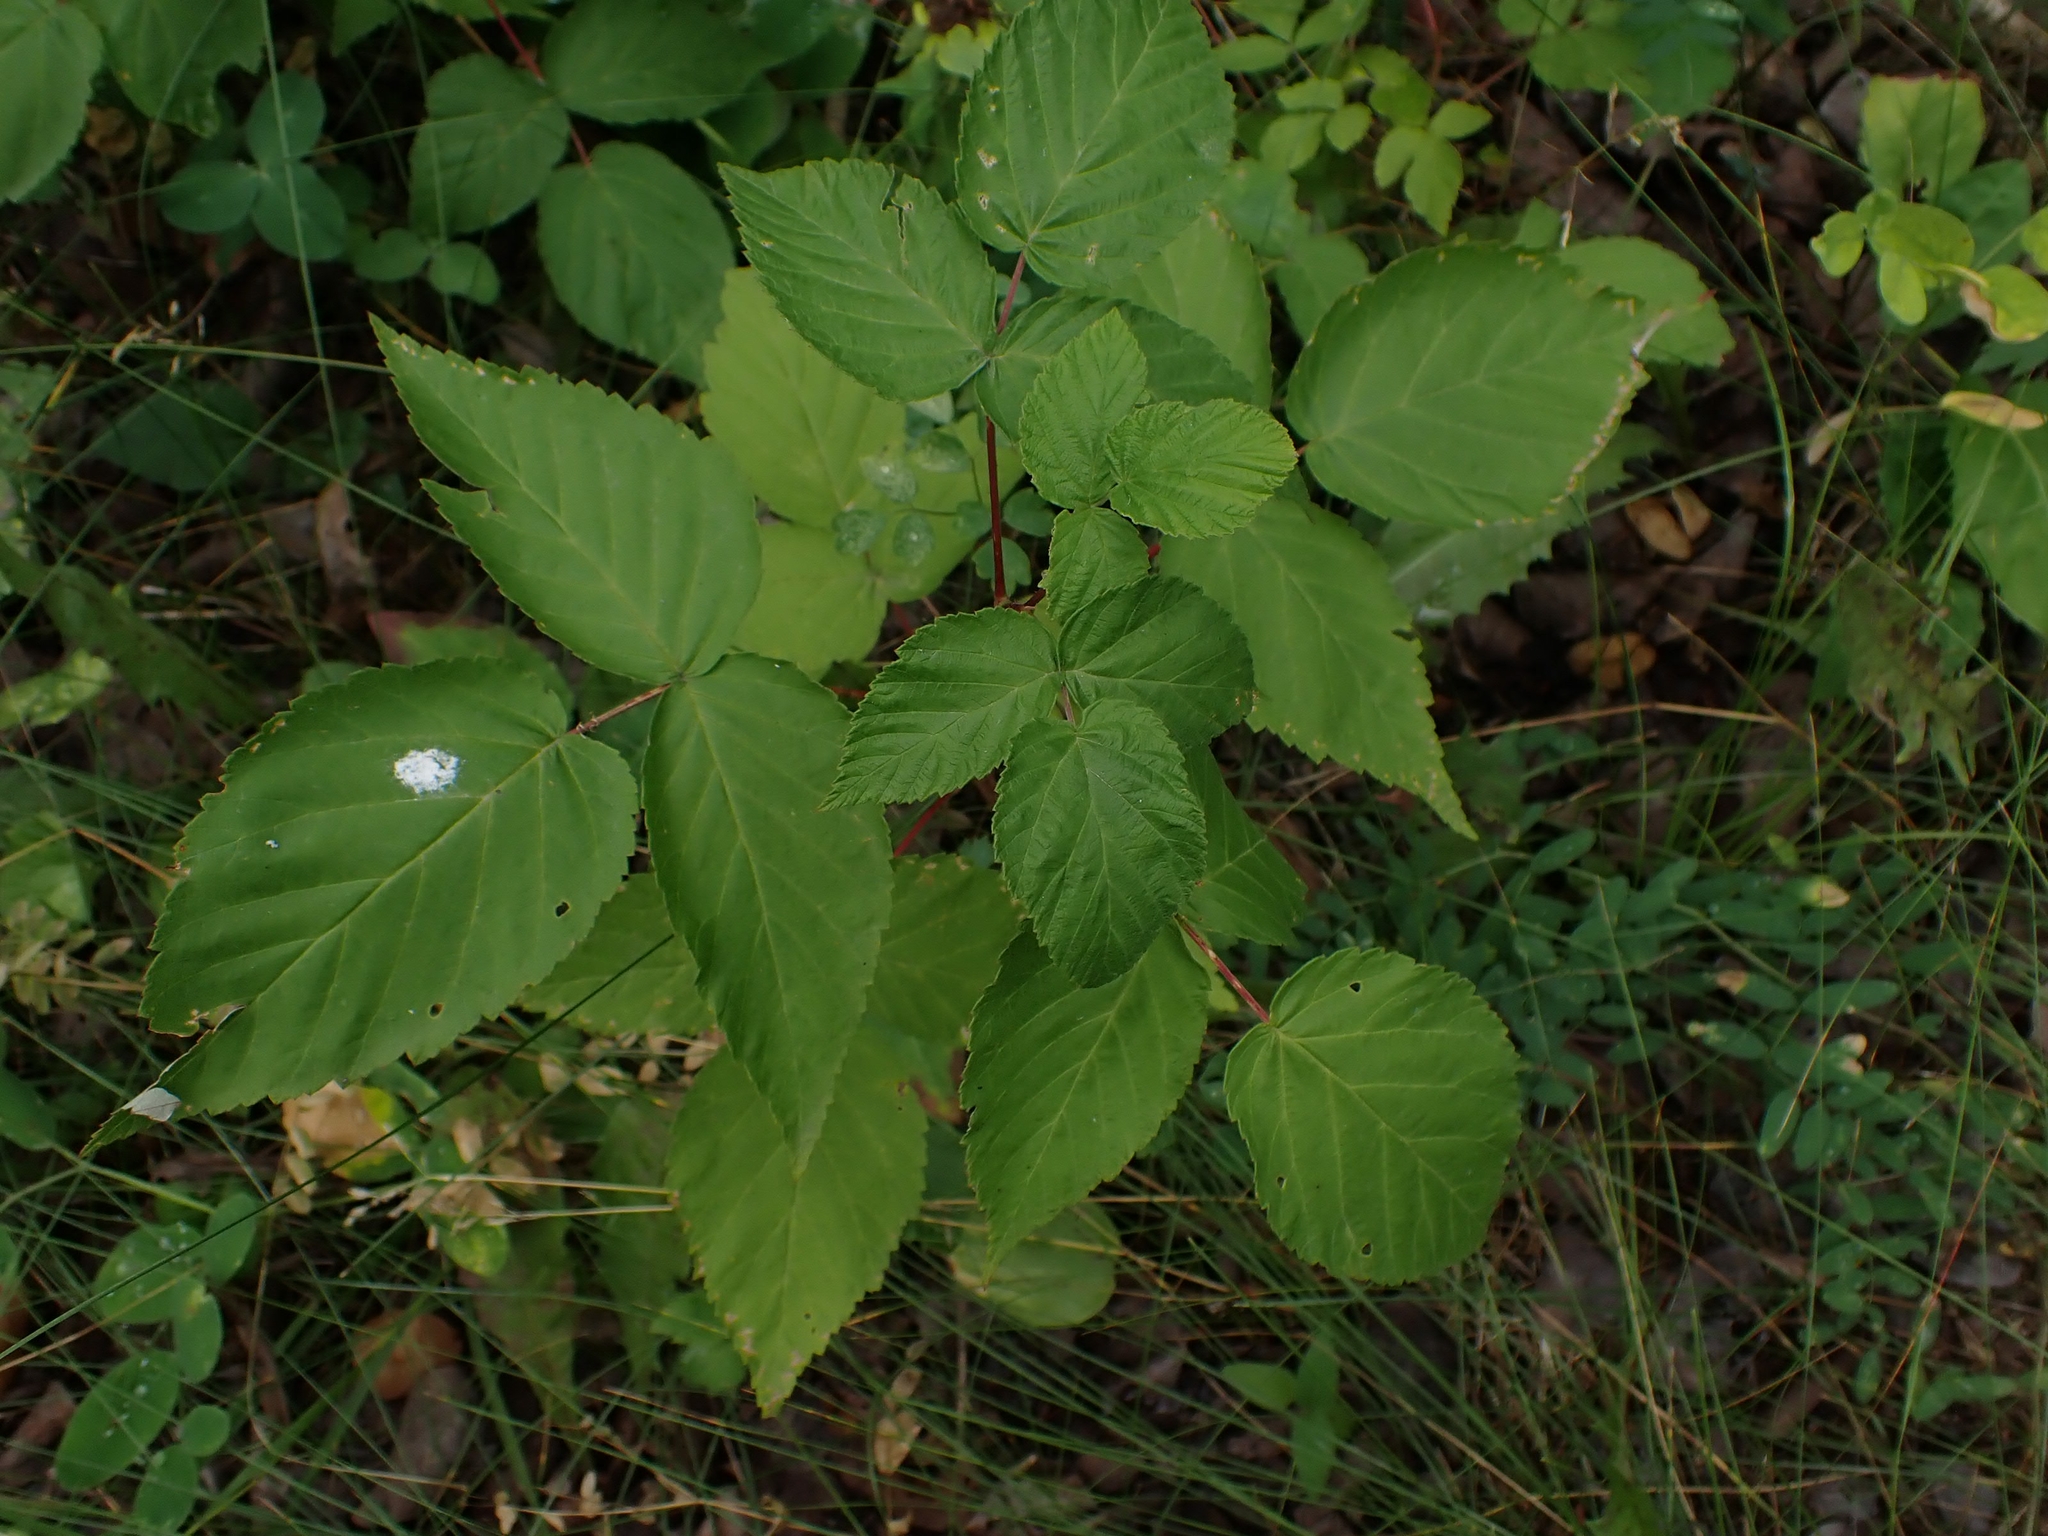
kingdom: Plantae
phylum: Tracheophyta
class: Magnoliopsida
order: Rosales
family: Rosaceae
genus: Rubus
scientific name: Rubus idaeus
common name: Raspberry
